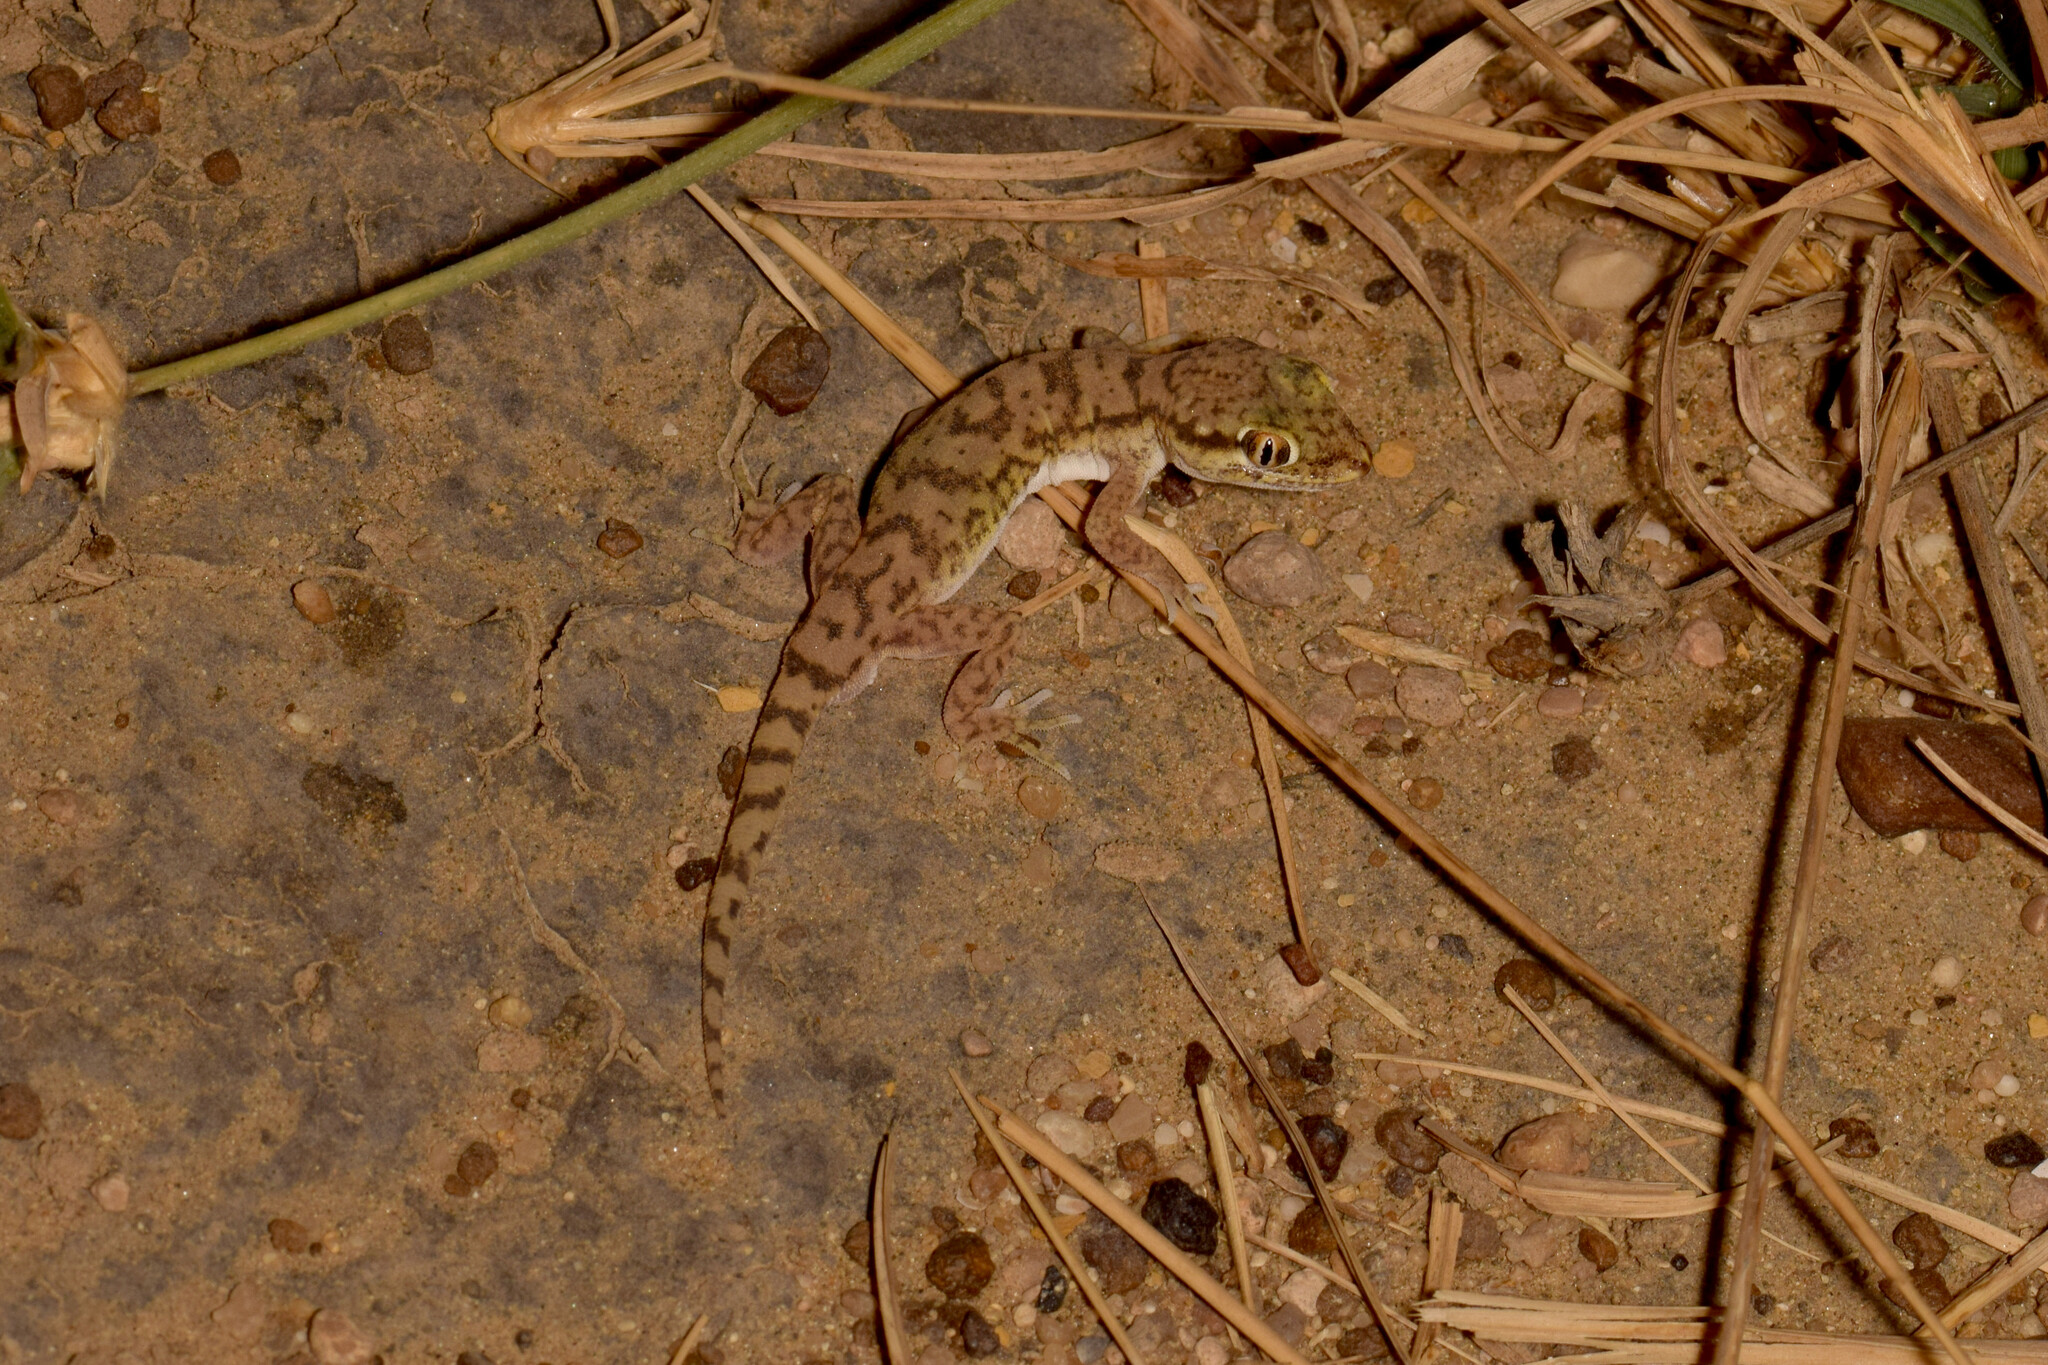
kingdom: Animalia
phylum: Chordata
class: Squamata
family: Gekkonidae
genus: Crossobamon
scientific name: Crossobamon orientalis
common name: Sind gecko
